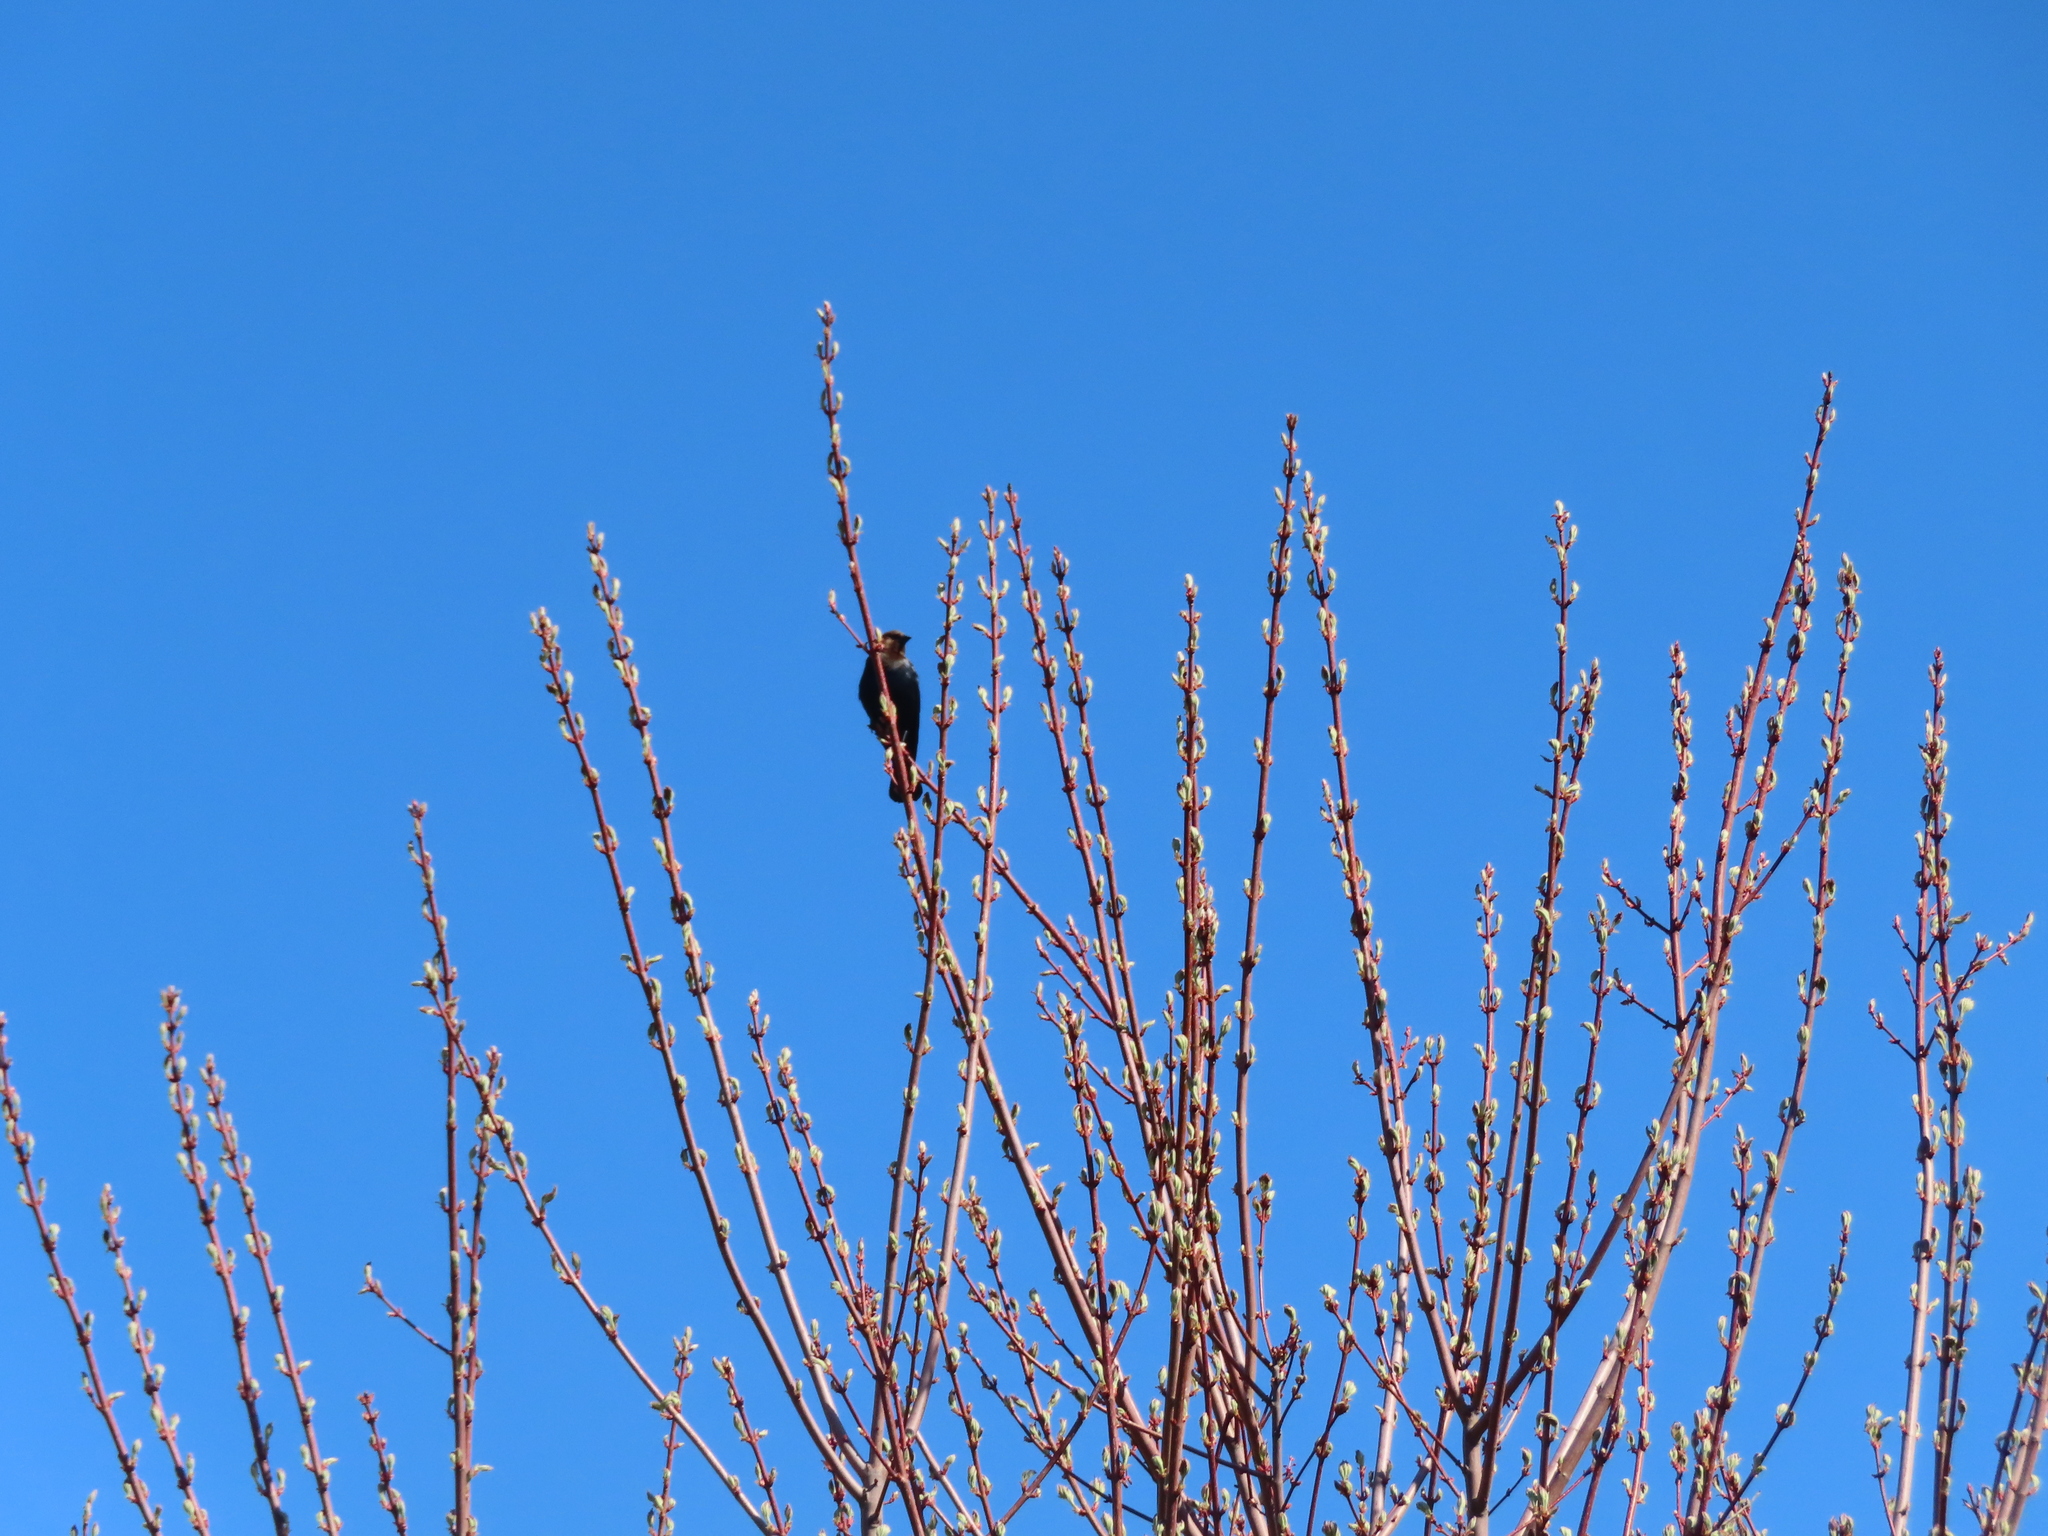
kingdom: Animalia
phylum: Chordata
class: Aves
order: Passeriformes
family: Icteridae
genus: Molothrus
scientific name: Molothrus ater
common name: Brown-headed cowbird
